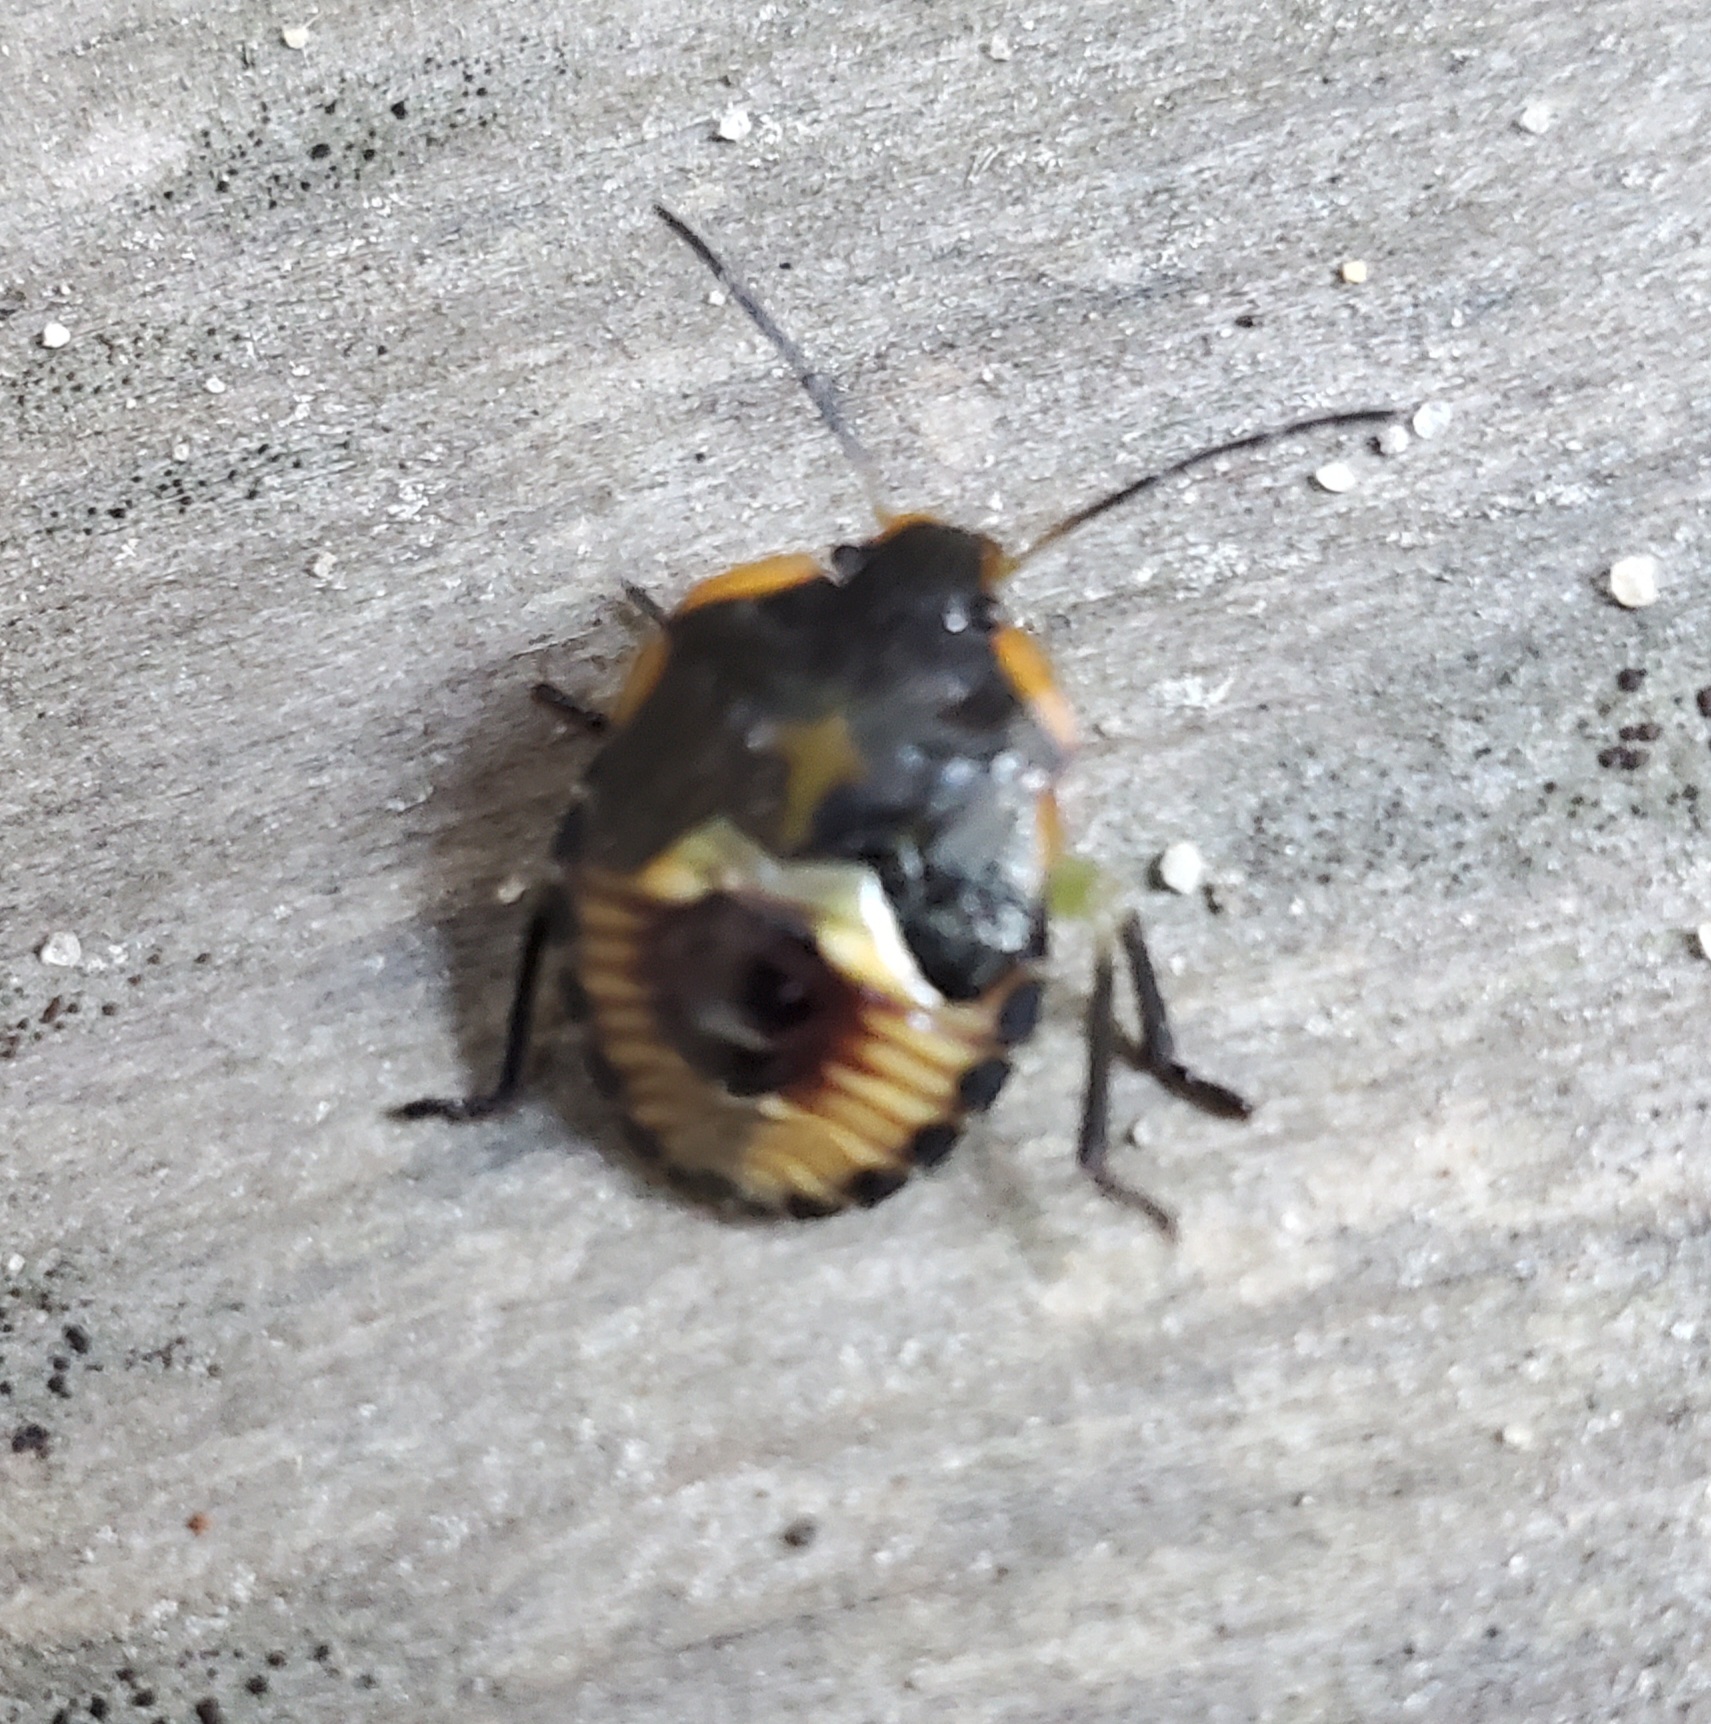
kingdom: Animalia
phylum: Arthropoda
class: Insecta
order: Hemiptera
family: Pentatomidae
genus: Chinavia
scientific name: Chinavia hilaris
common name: Green stink bug
